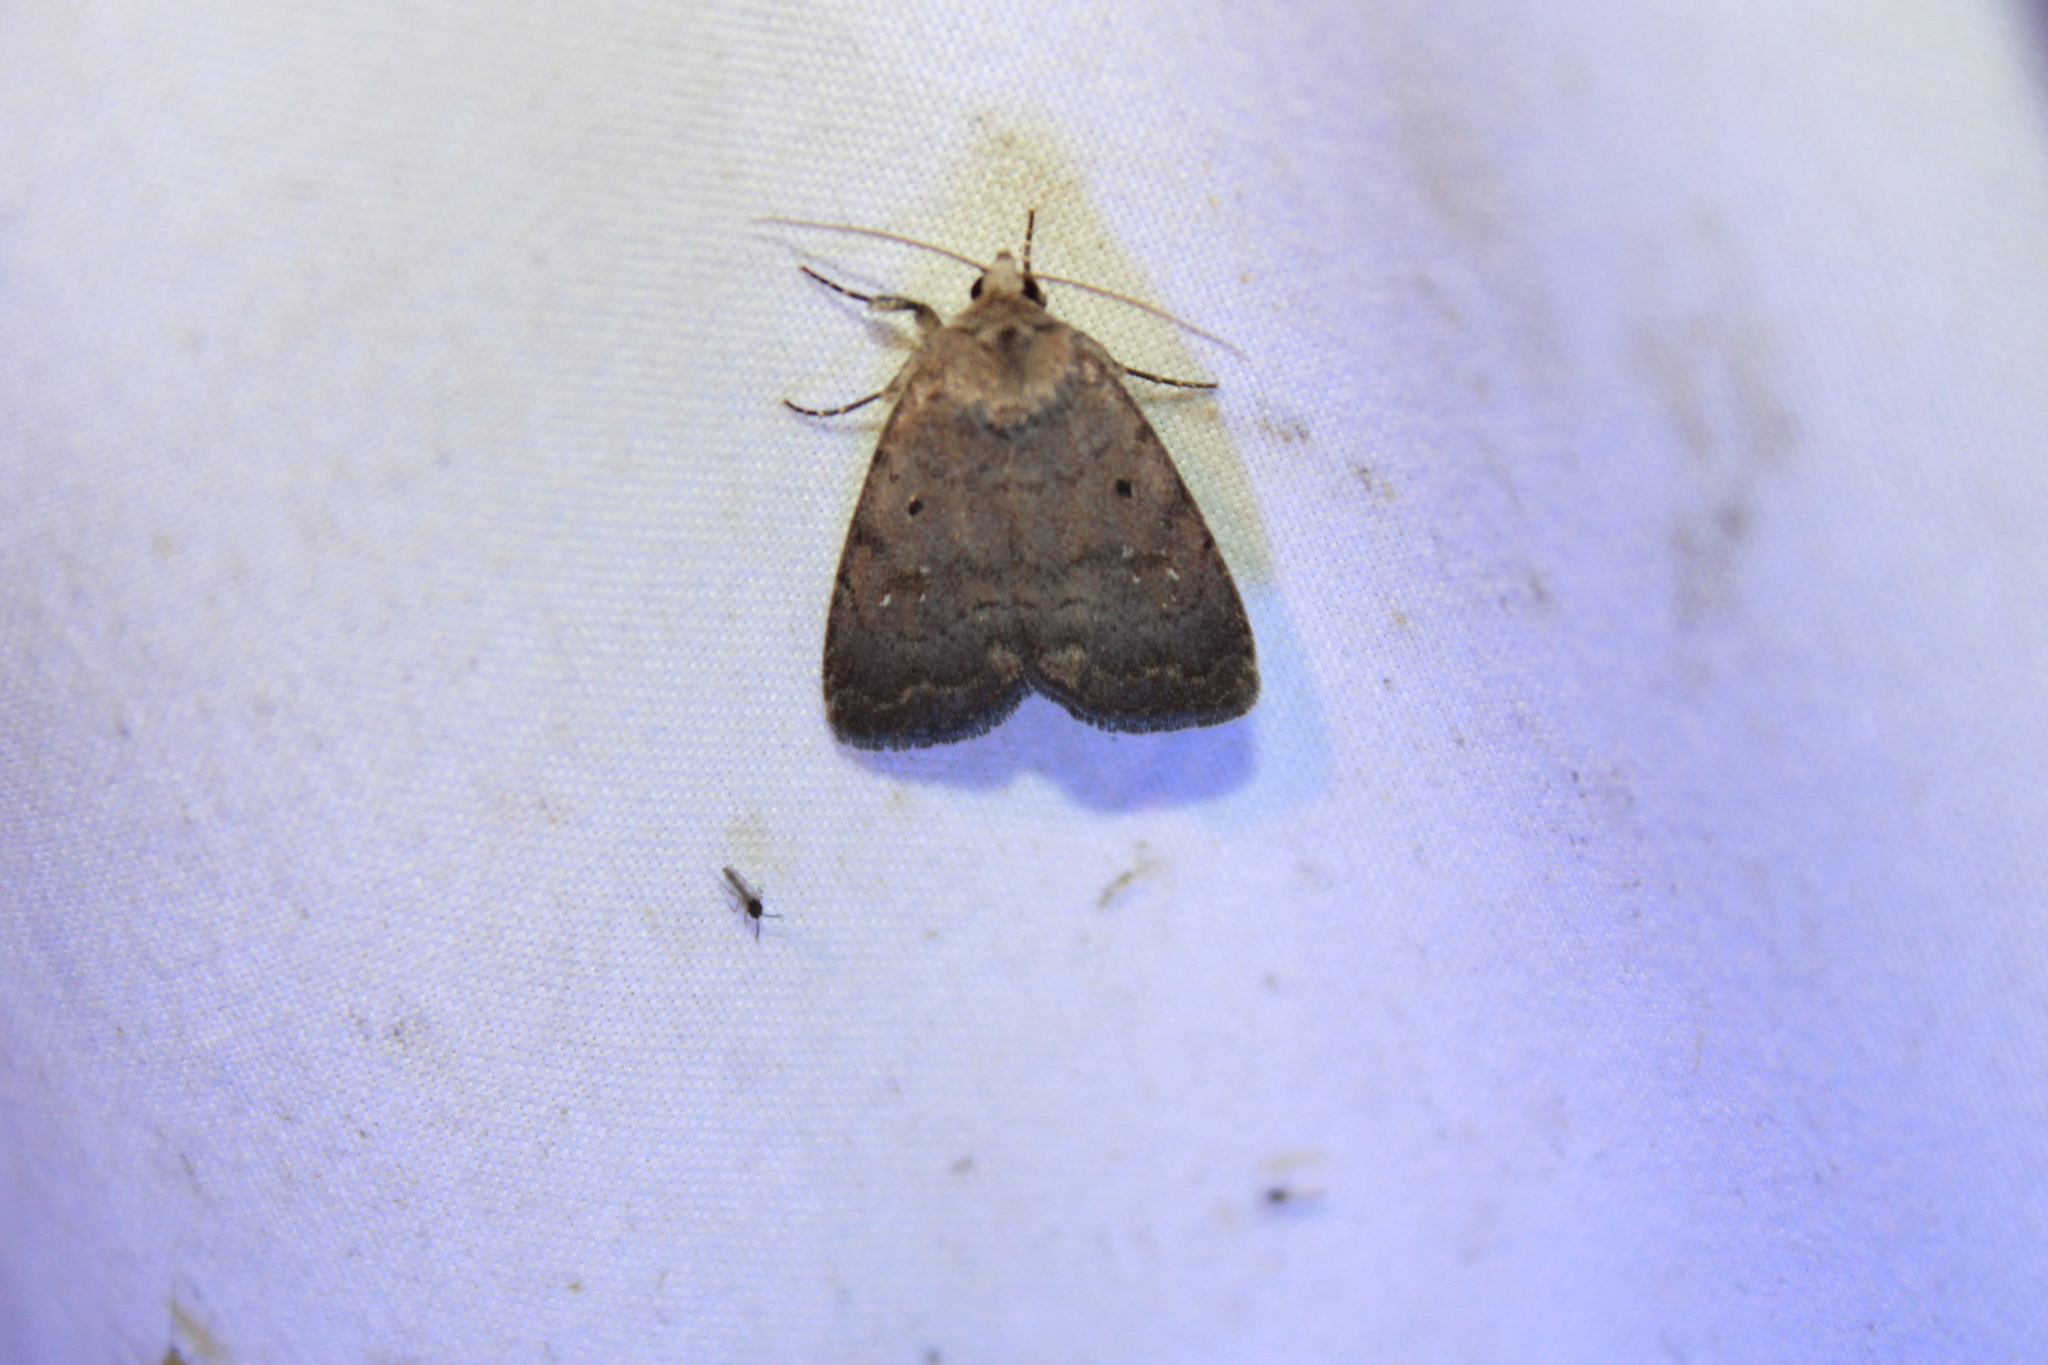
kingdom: Animalia
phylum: Arthropoda
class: Insecta
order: Lepidoptera
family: Noctuidae
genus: Athetis
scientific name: Athetis tarda
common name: Slowpoke moth
